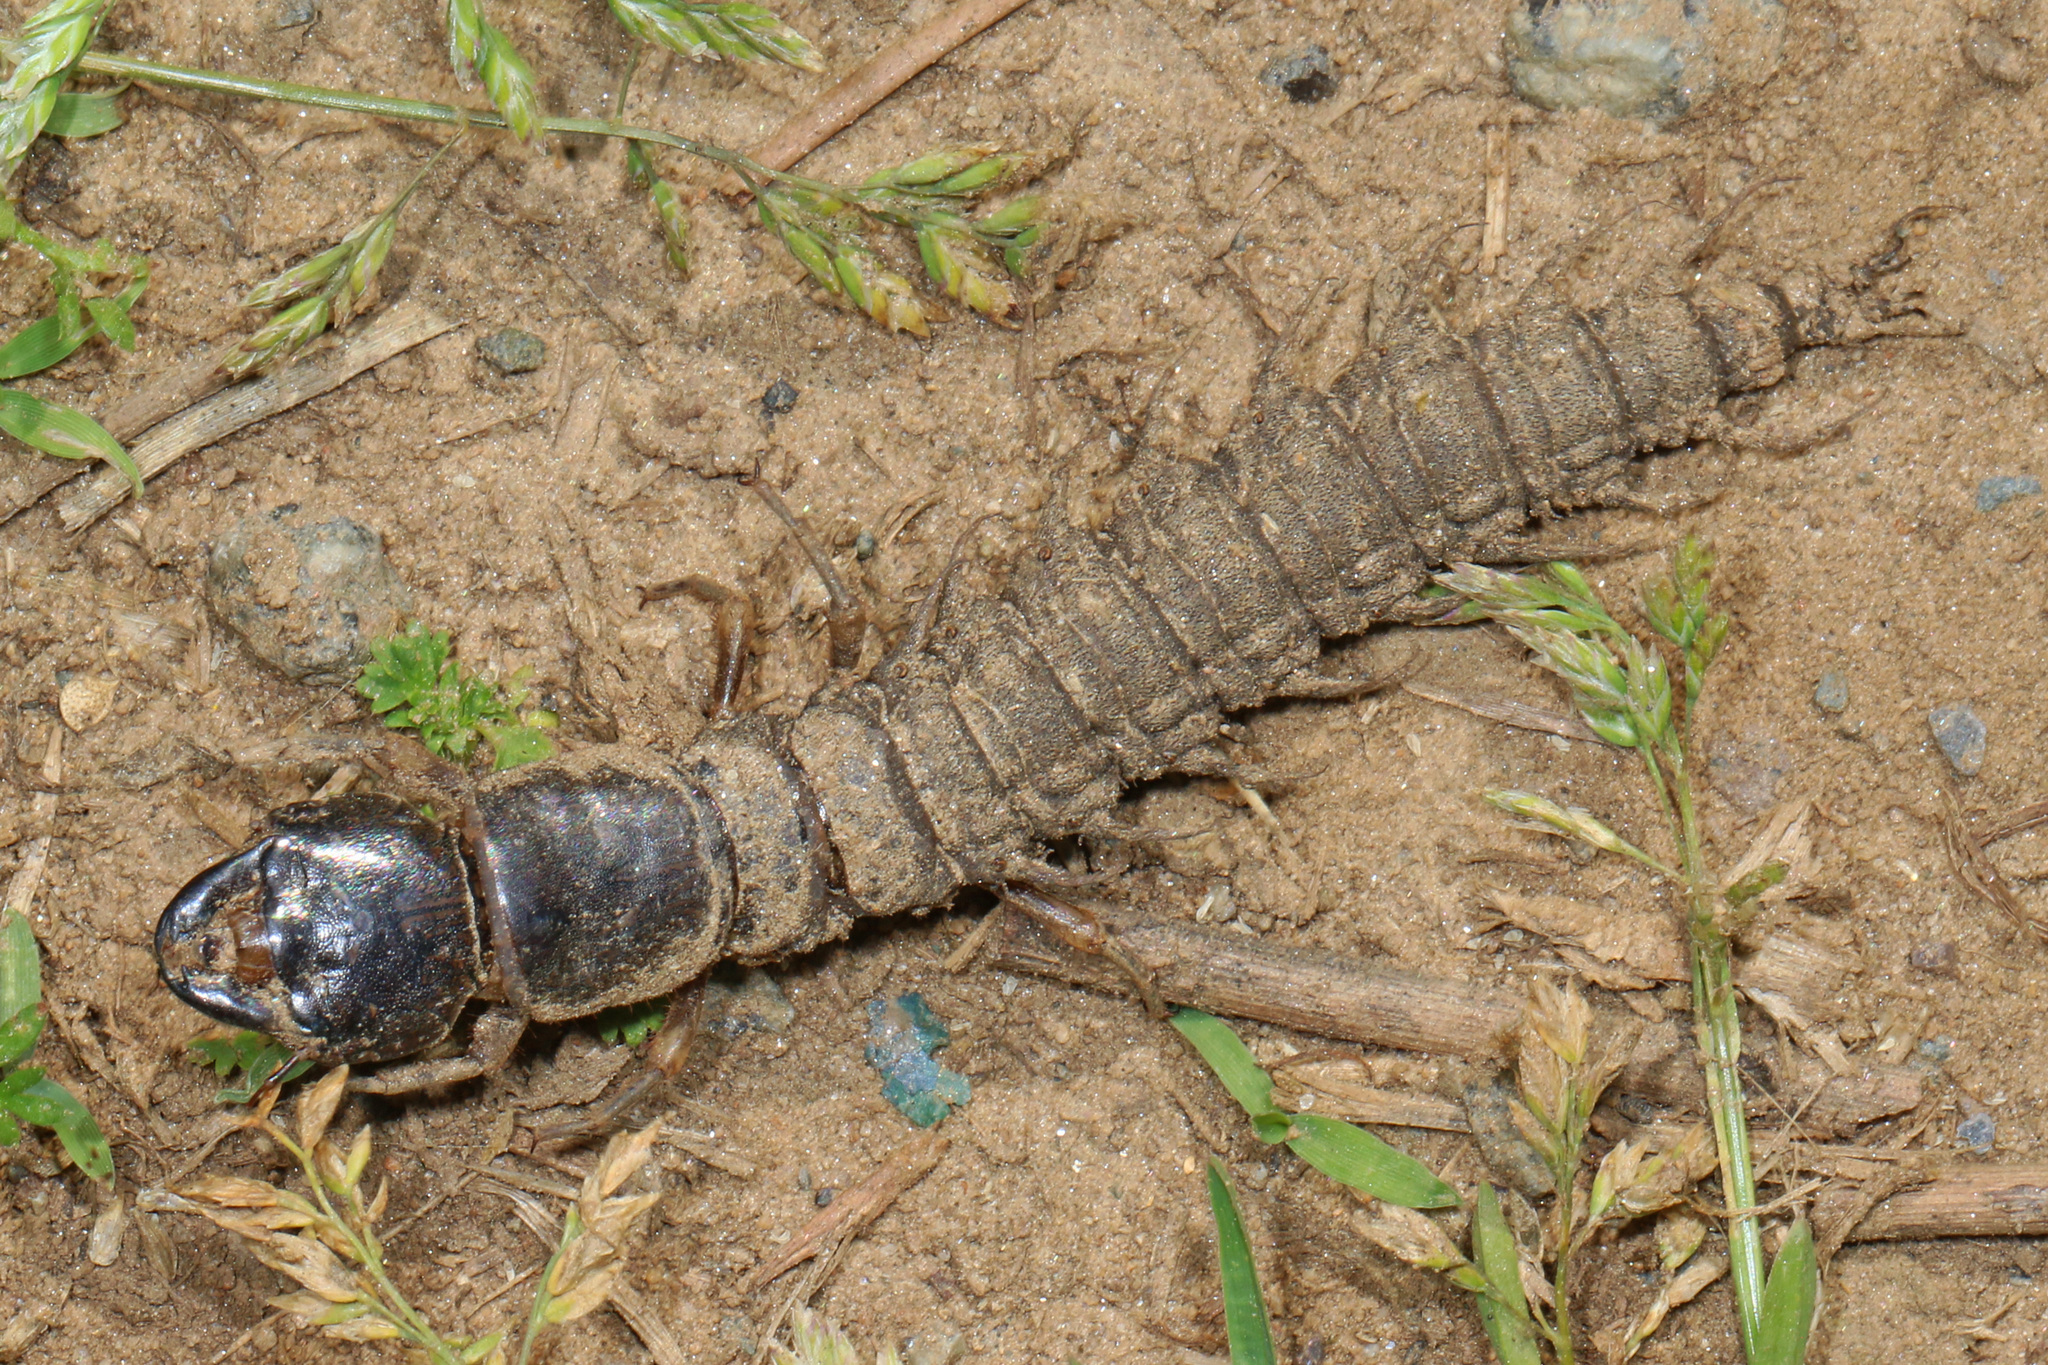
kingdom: Animalia
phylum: Arthropoda
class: Insecta
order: Megaloptera
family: Corydalidae
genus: Corydalus
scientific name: Corydalus cornutus
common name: Dobsonfly
